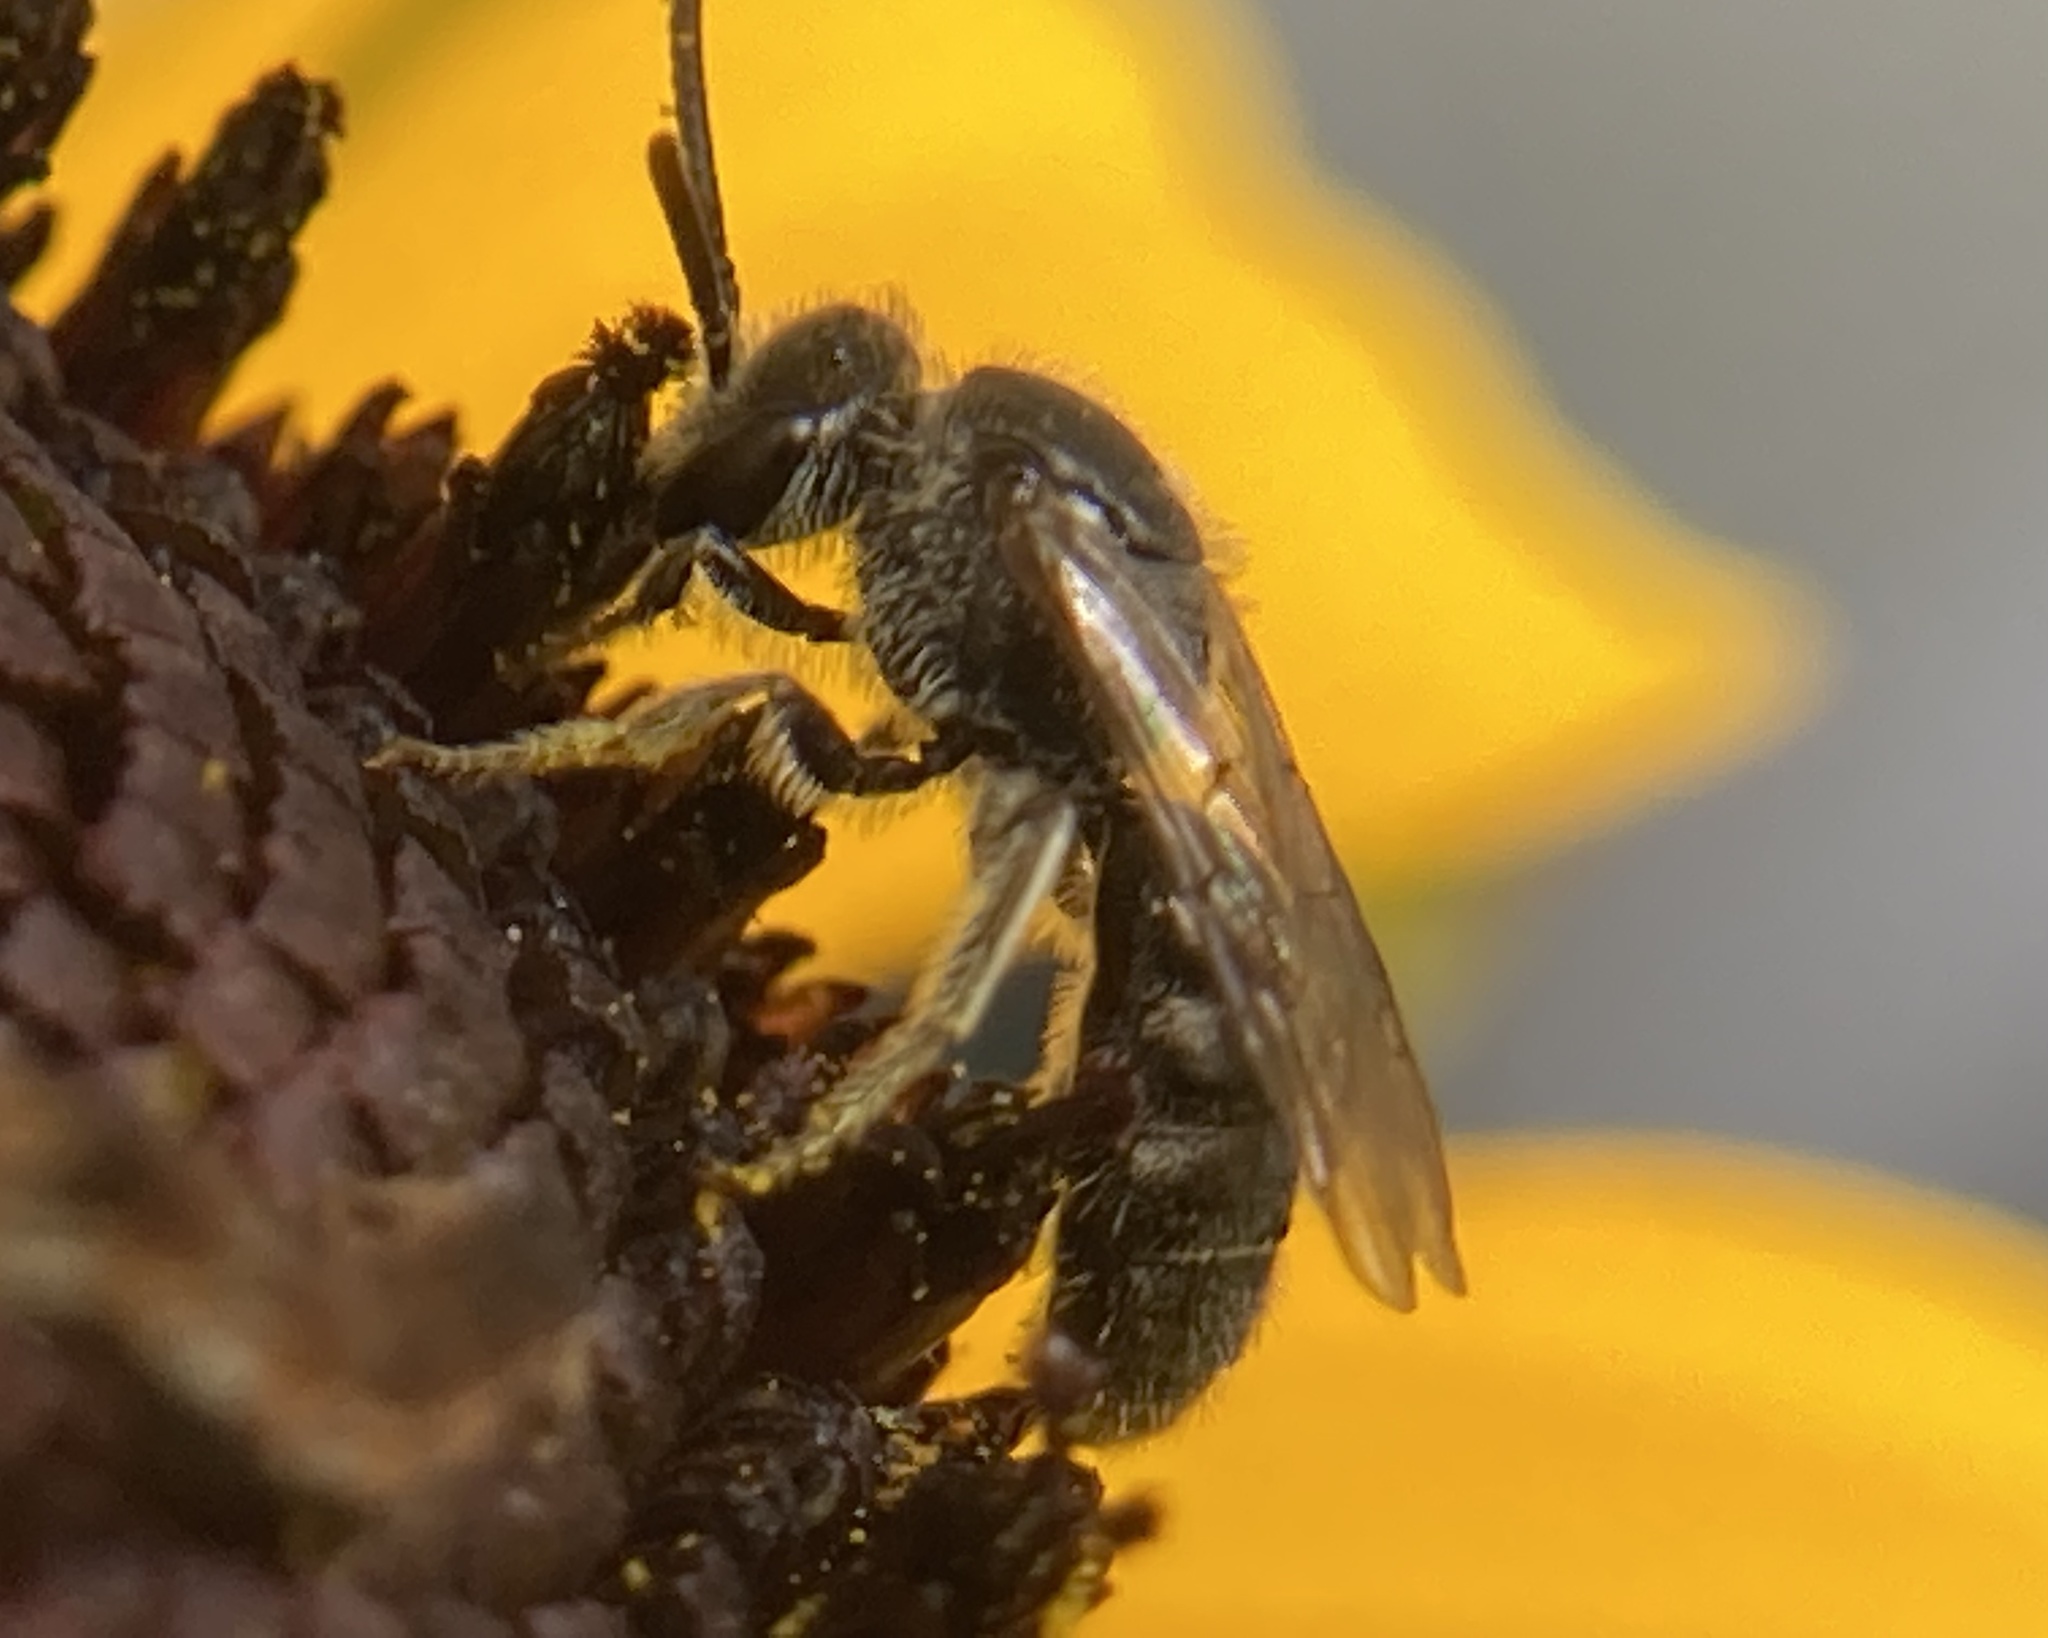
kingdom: Animalia
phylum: Arthropoda
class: Insecta
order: Hymenoptera
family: Halictidae
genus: Lasioglossum
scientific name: Lasioglossum
